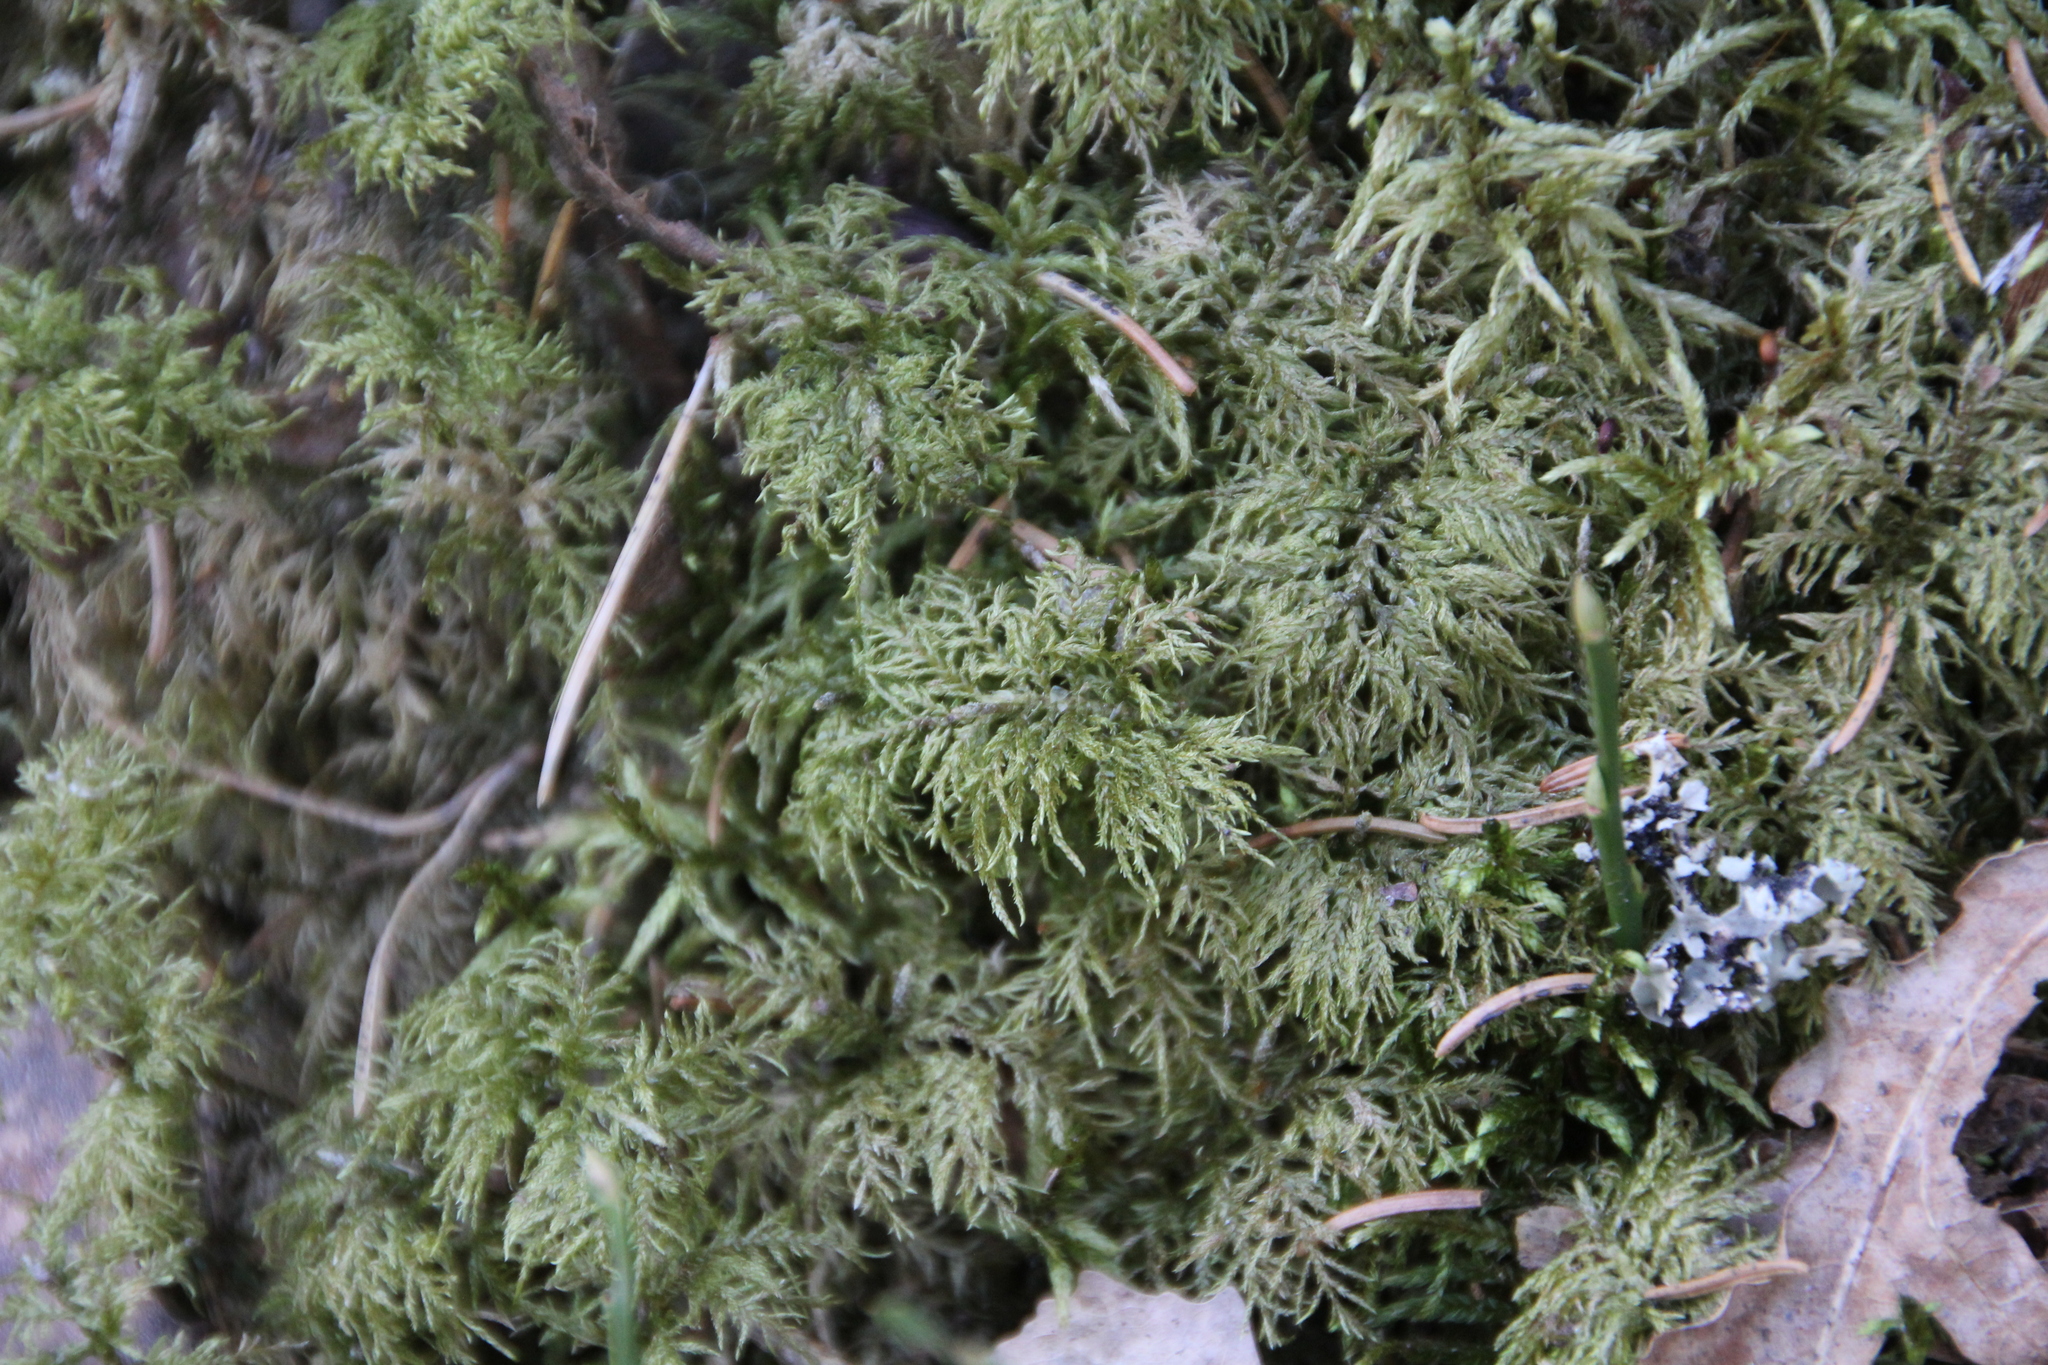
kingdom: Plantae
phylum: Bryophyta
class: Bryopsida
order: Hypnales
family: Hylocomiaceae
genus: Hylocomium
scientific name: Hylocomium splendens
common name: Stairstep moss
